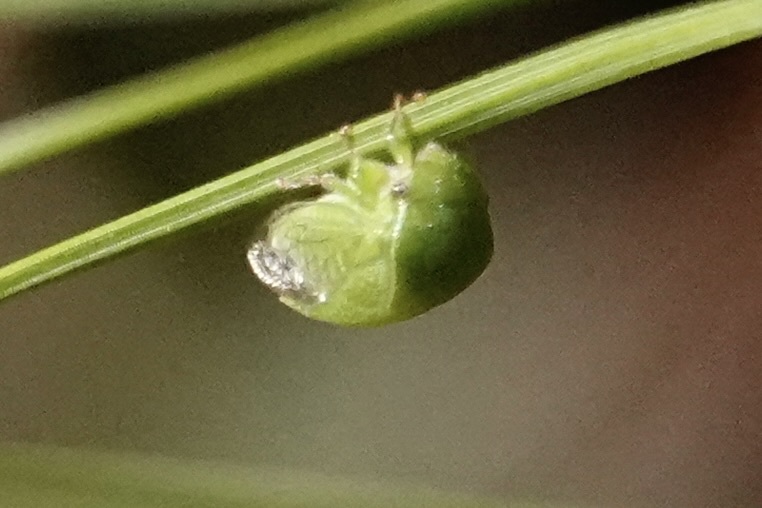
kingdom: Animalia
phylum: Arthropoda
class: Insecta
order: Hemiptera
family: Membracidae
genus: Spissistilus
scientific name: Spissistilus festina
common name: Membracid bug
